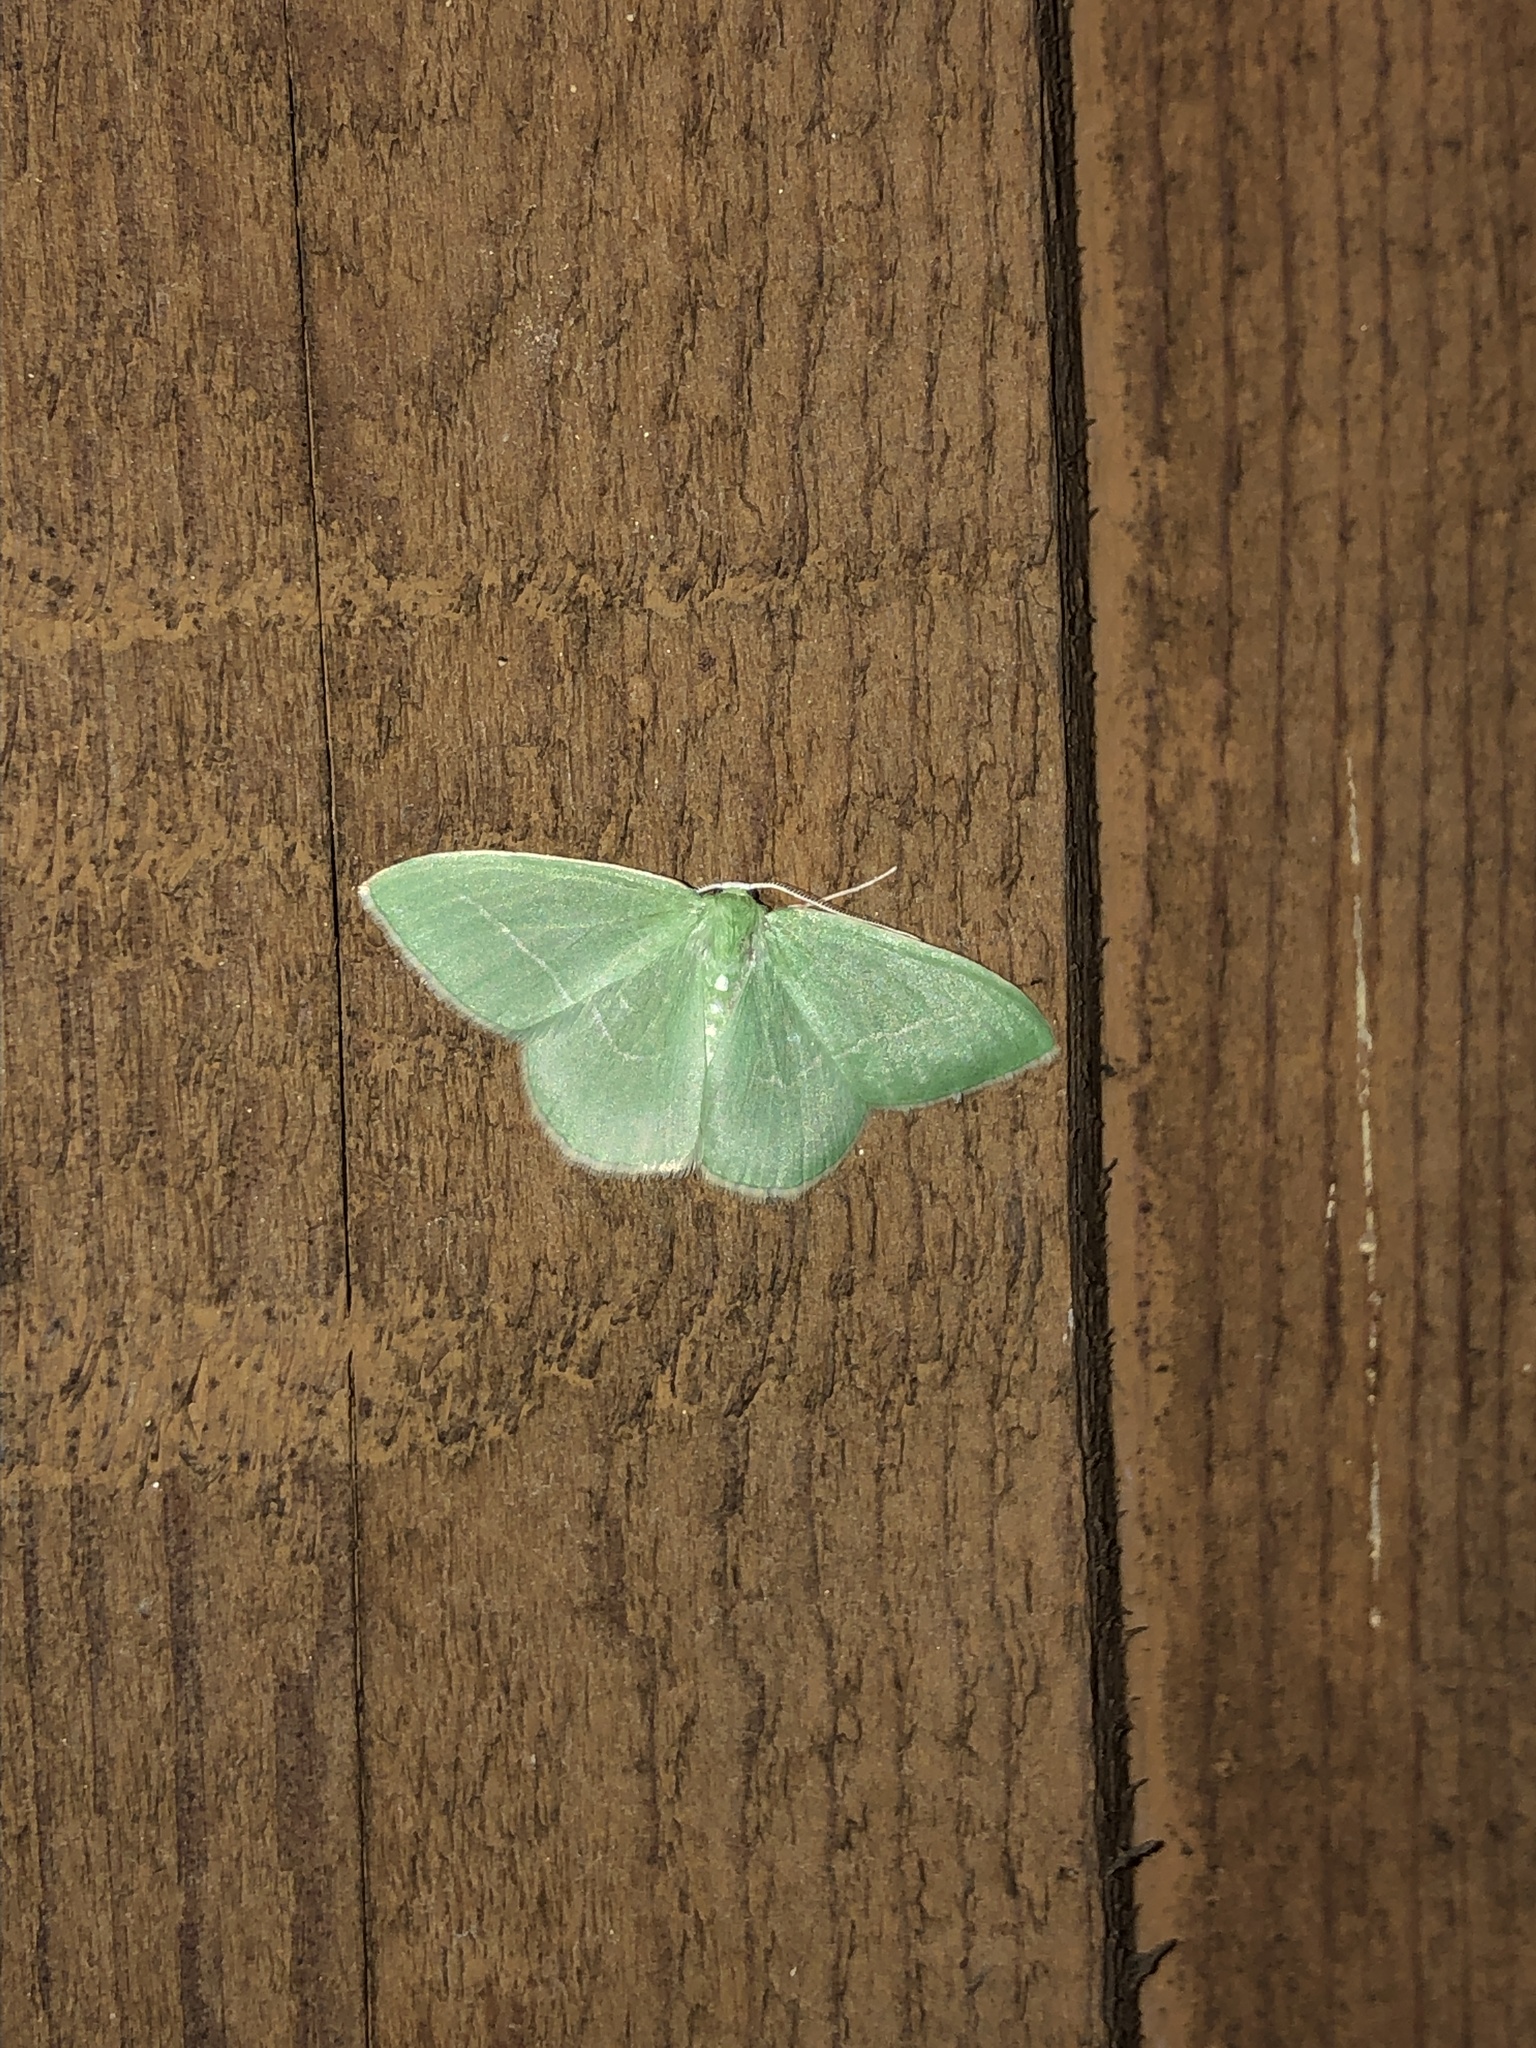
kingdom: Animalia
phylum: Arthropoda
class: Insecta
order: Lepidoptera
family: Geometridae
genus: Nemoria
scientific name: Nemoria unitaria
